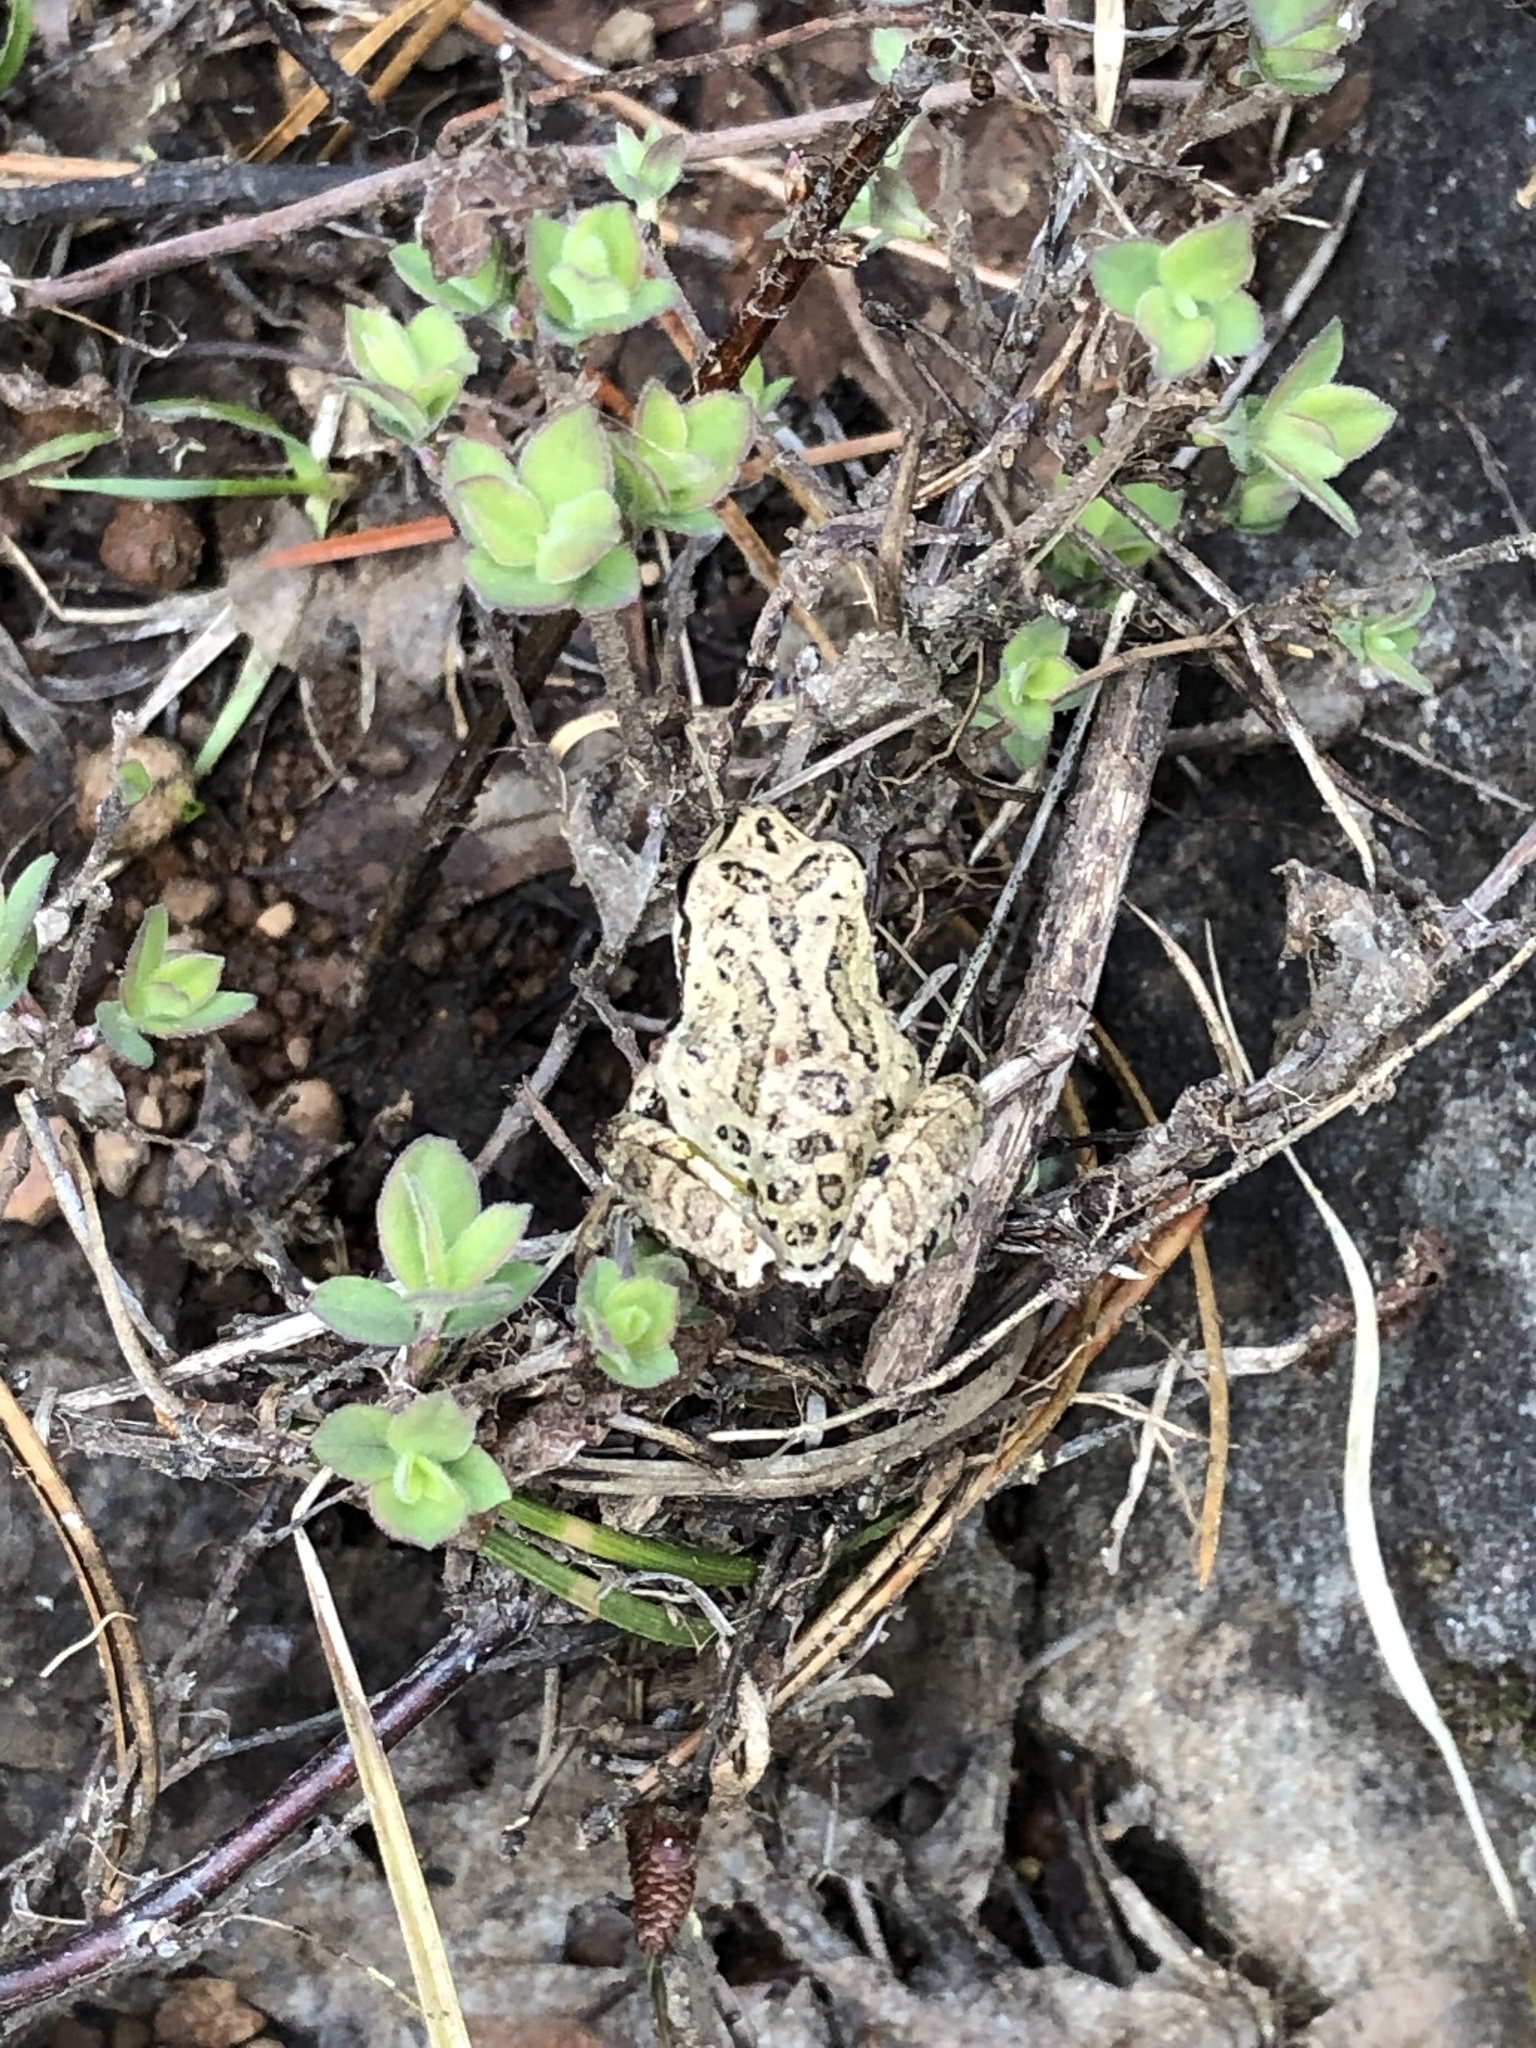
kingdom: Animalia
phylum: Chordata
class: Amphibia
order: Anura
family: Hylidae
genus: Pseudacris
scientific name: Pseudacris regilla
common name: Pacific chorus frog
